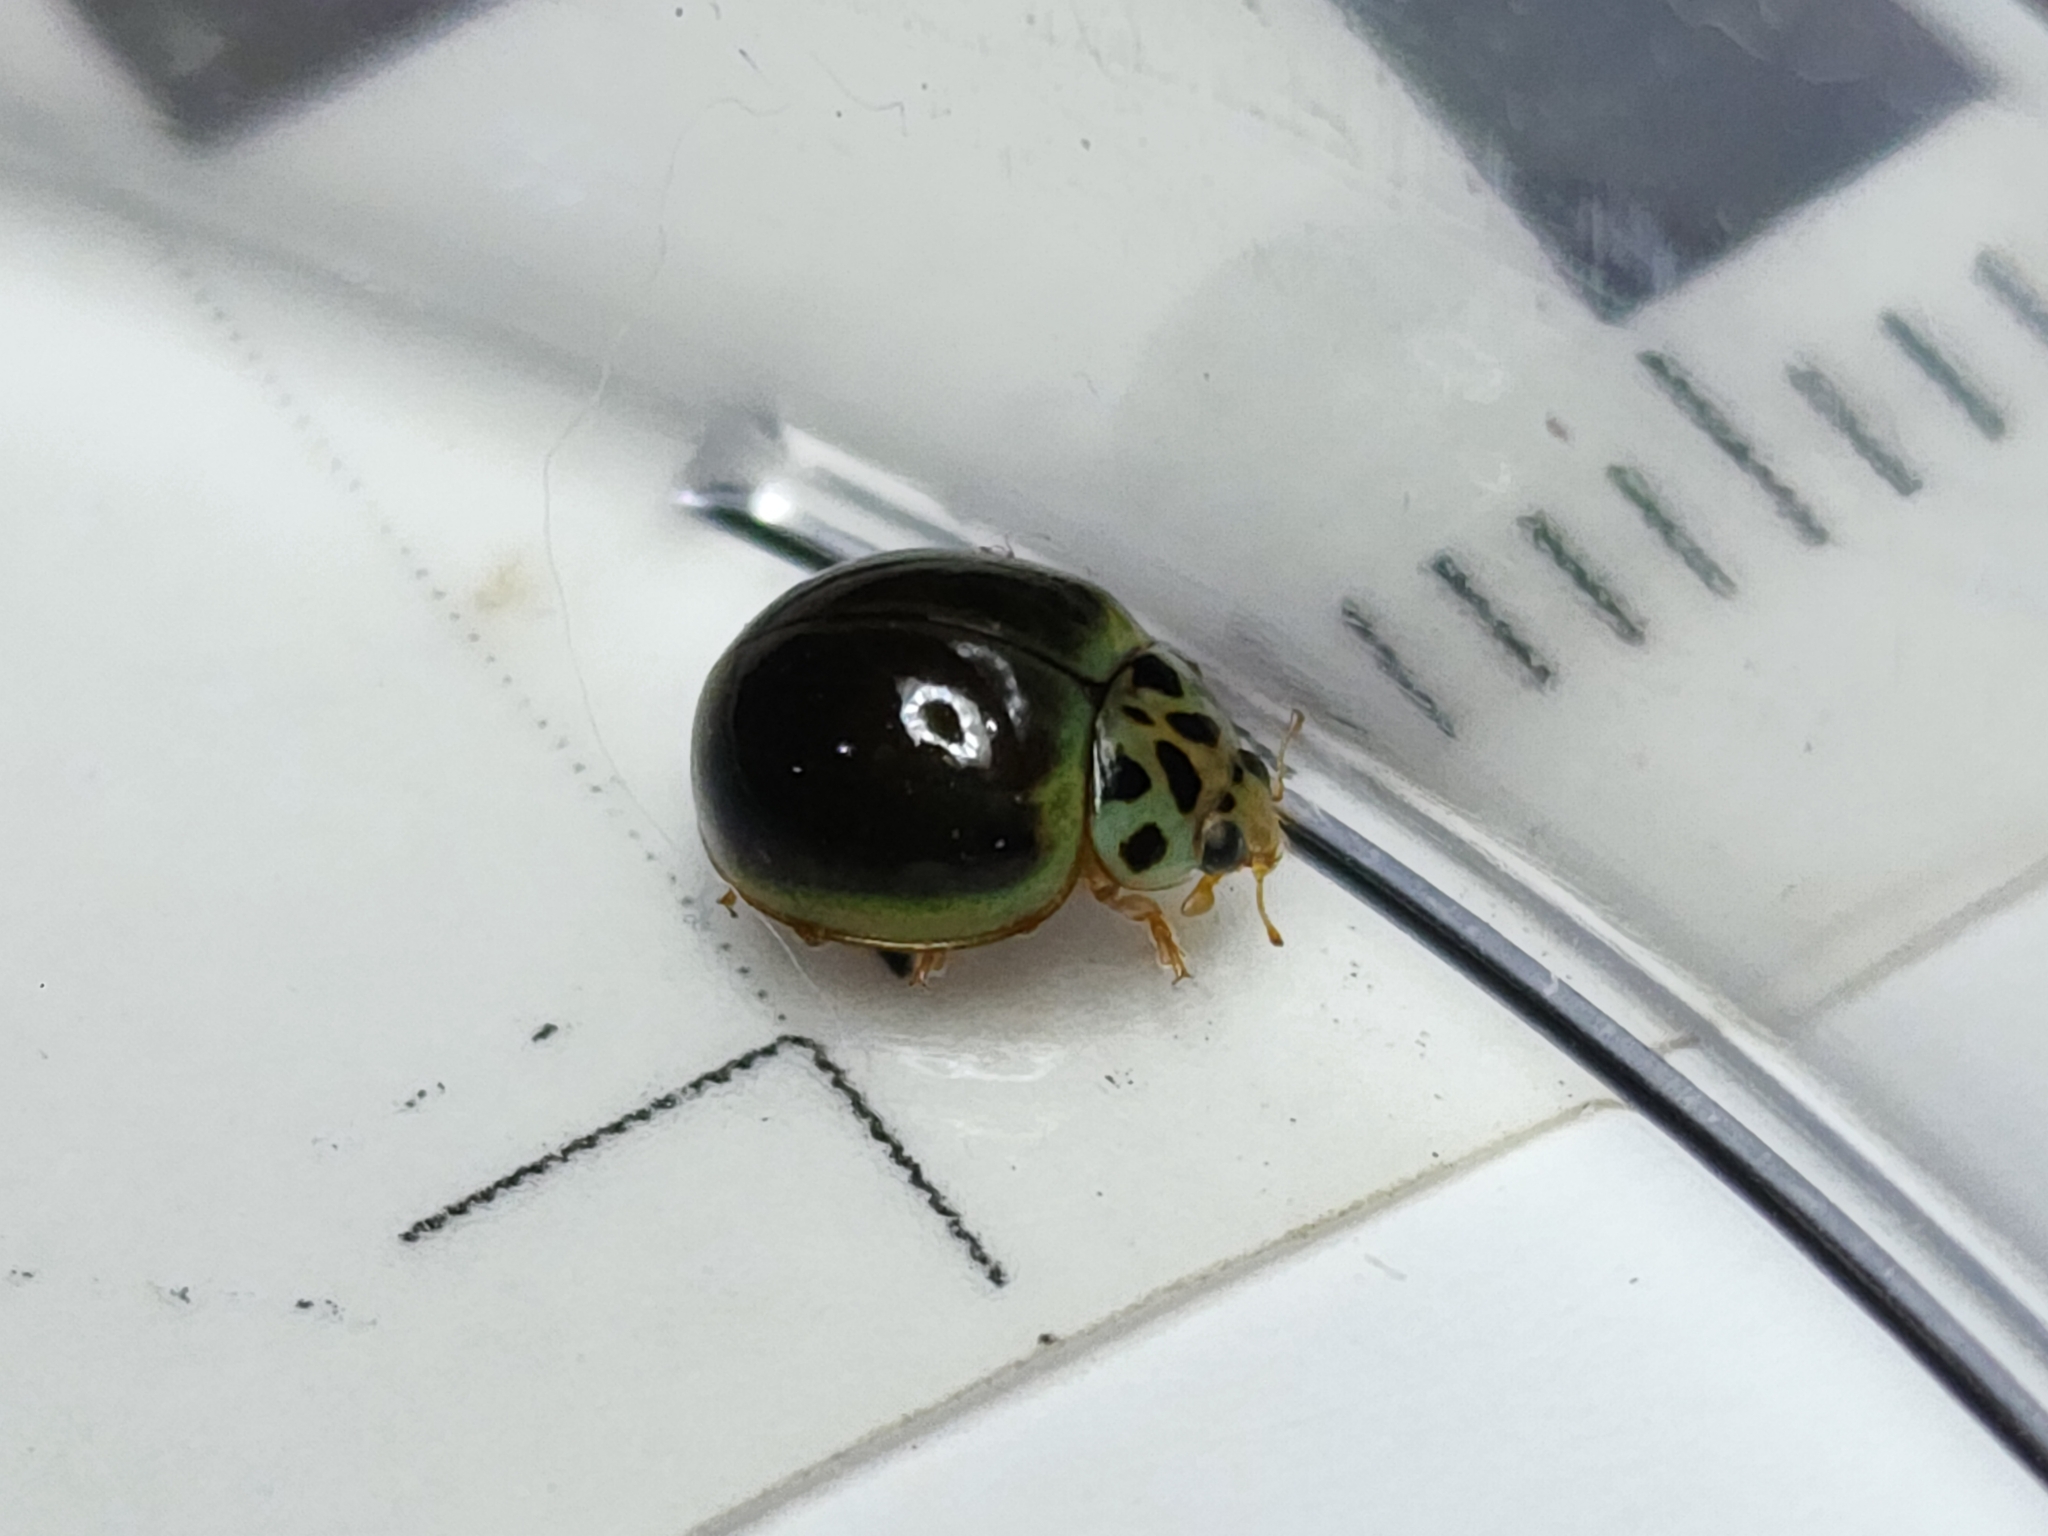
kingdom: Animalia
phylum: Arthropoda
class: Insecta
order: Coleoptera
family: Coccinellidae
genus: Neoharmonia
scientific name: Neoharmonia
